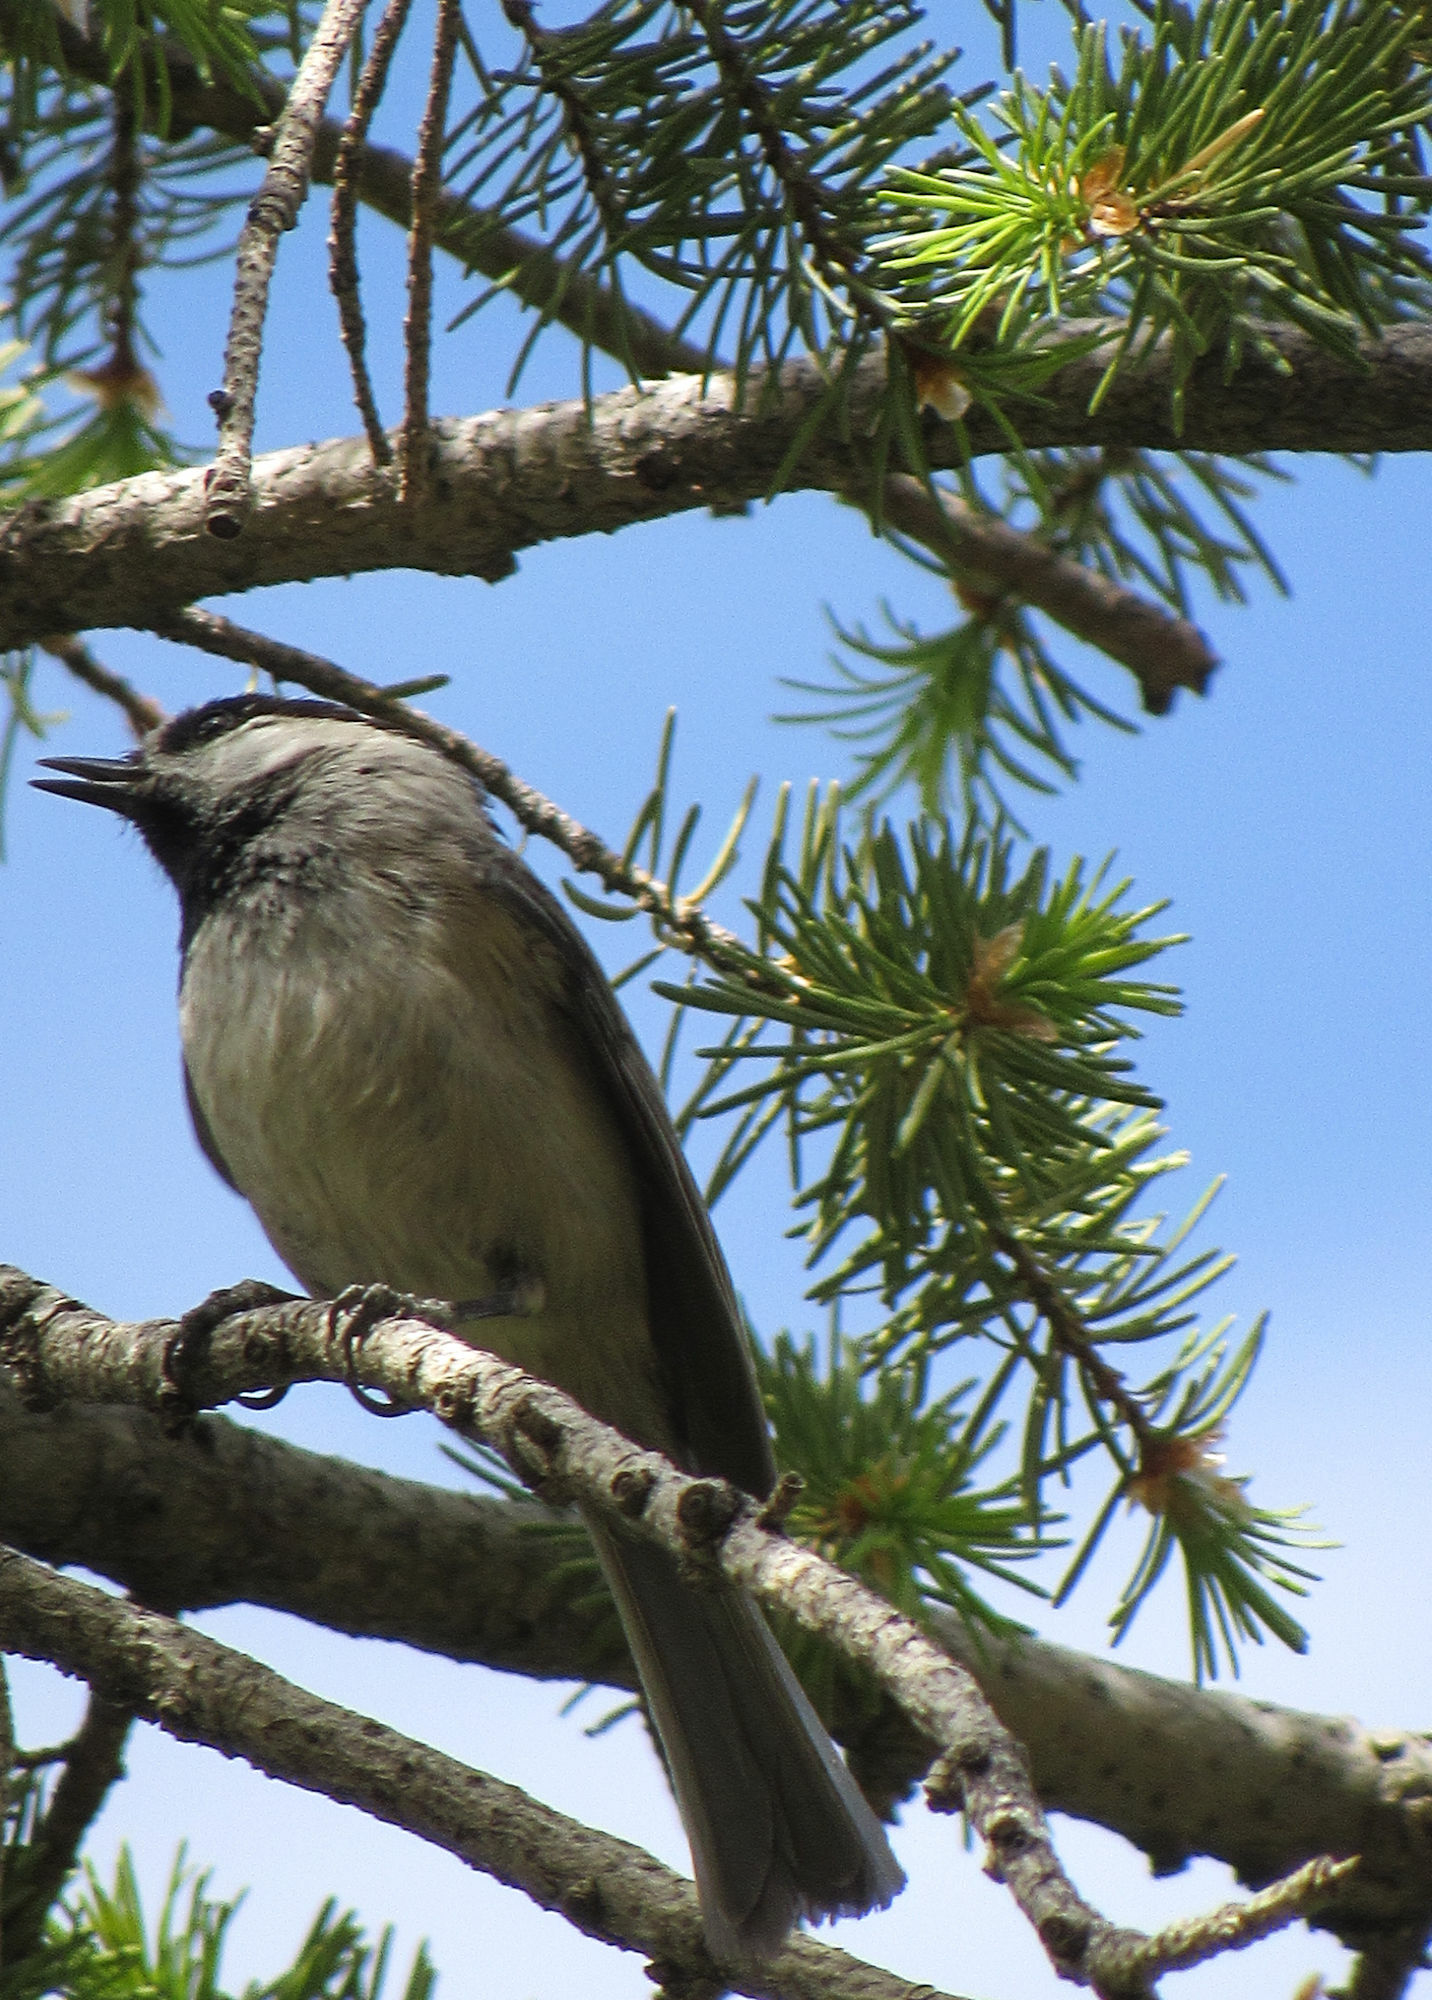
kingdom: Animalia
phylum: Chordata
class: Aves
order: Passeriformes
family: Paridae
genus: Poecile
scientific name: Poecile gambeli
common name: Mountain chickadee
